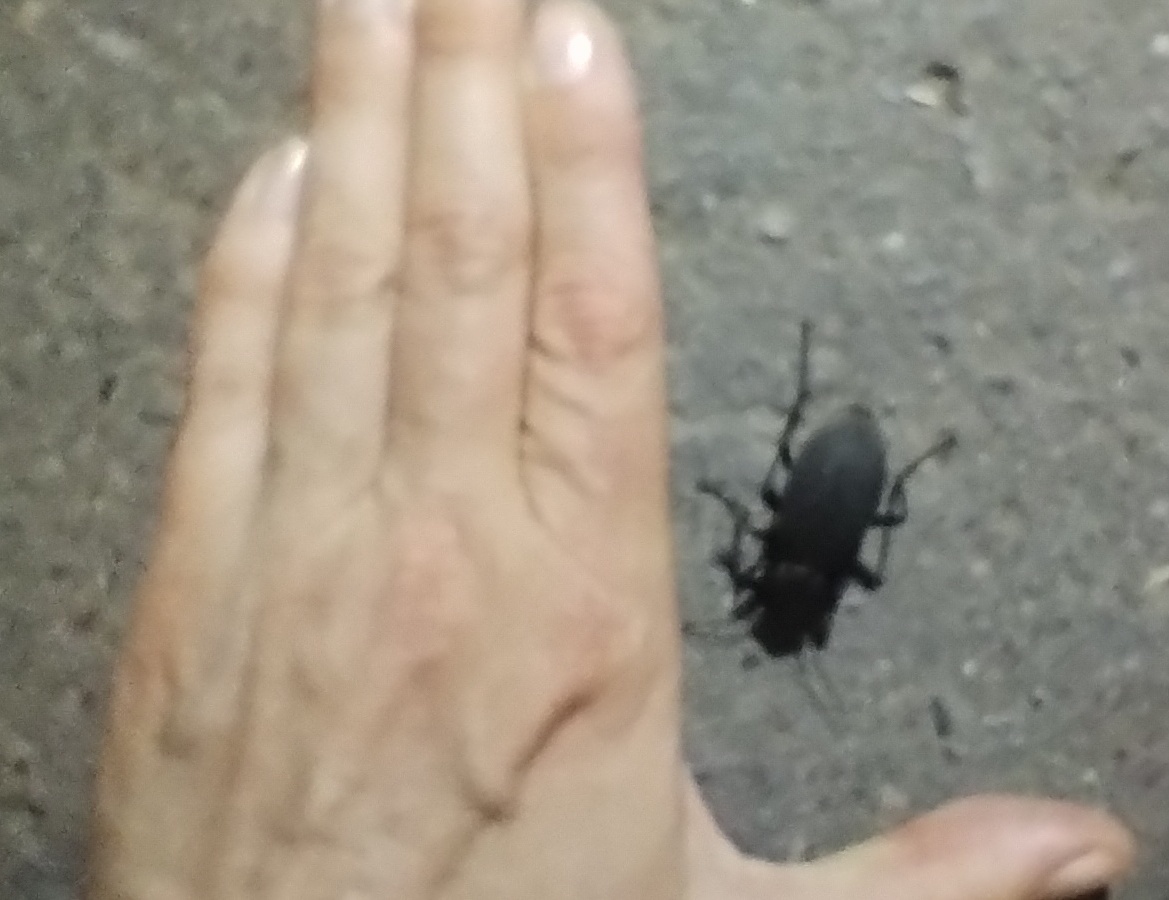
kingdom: Animalia
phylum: Arthropoda
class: Insecta
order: Coleoptera
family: Carabidae
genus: Carabus
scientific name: Carabus coriaceus
